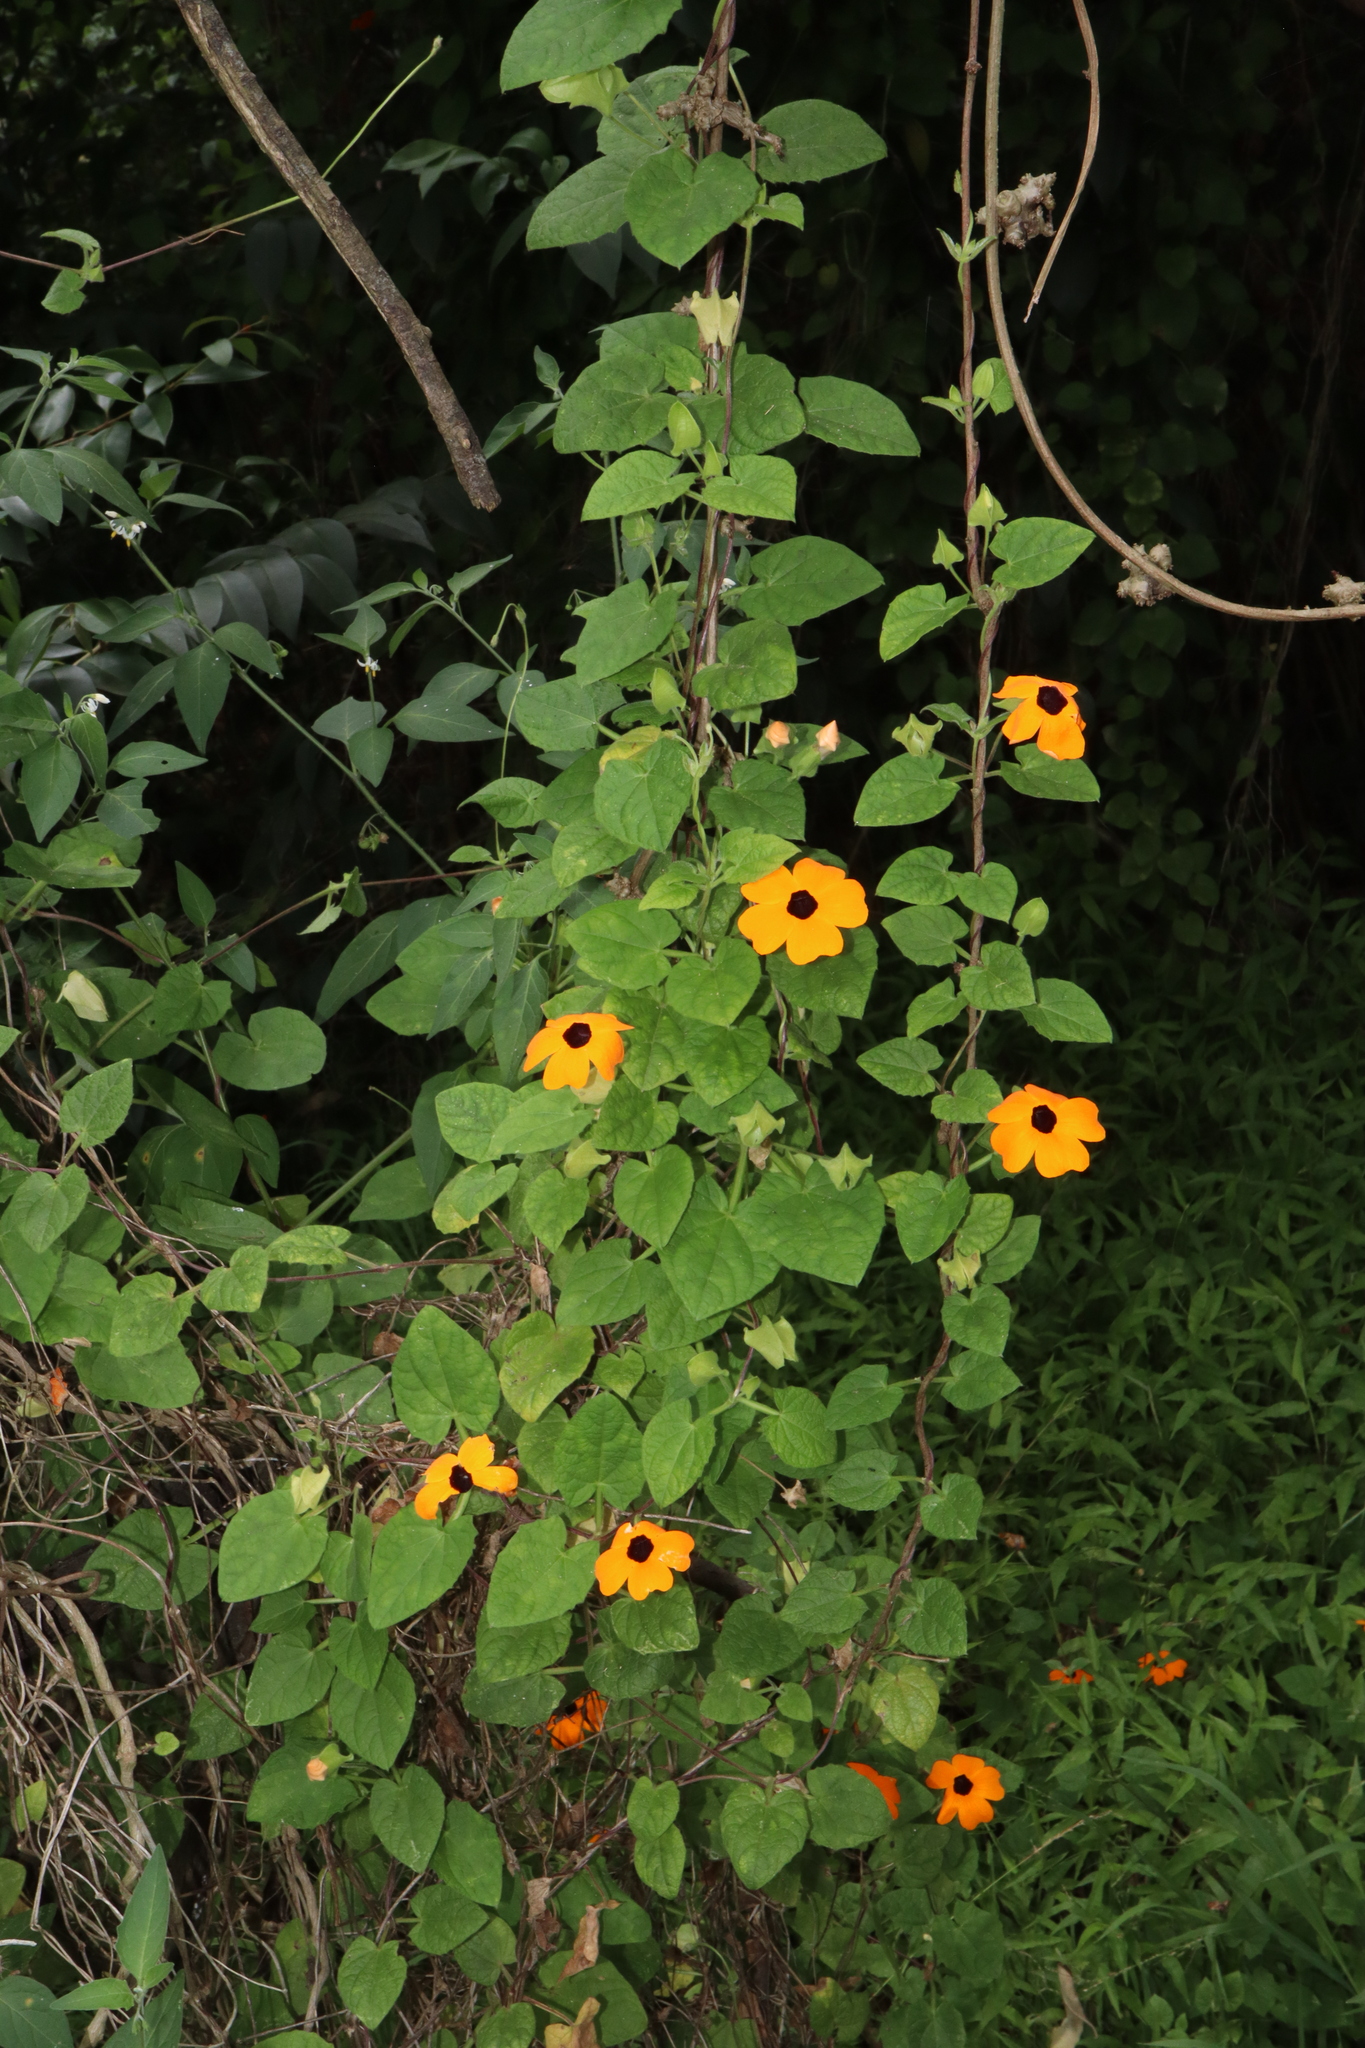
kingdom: Plantae
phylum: Tracheophyta
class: Magnoliopsida
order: Lamiales
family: Acanthaceae
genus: Thunbergia
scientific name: Thunbergia alata
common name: Blackeyed susan vine
